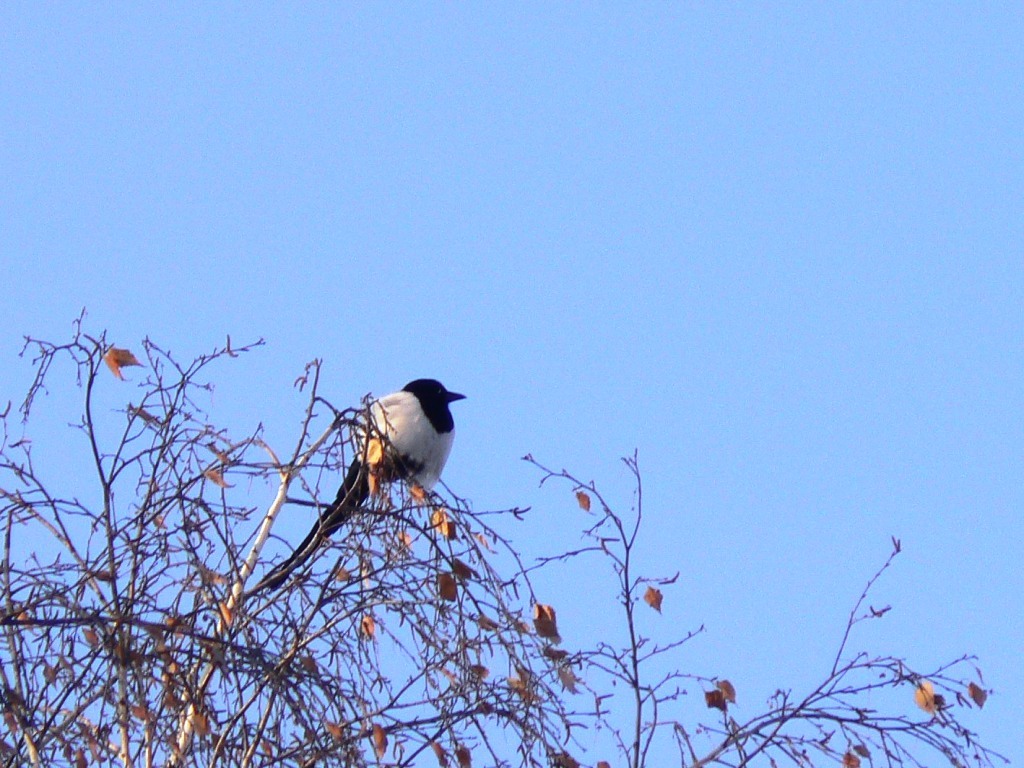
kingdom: Animalia
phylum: Chordata
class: Aves
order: Passeriformes
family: Corvidae
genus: Pica
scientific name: Pica pica
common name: Eurasian magpie
